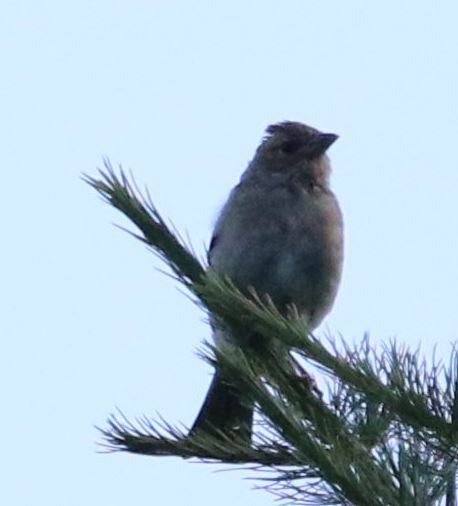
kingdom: Animalia
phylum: Chordata
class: Aves
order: Passeriformes
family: Fringillidae
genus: Fringilla
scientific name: Fringilla coelebs
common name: Common chaffinch
